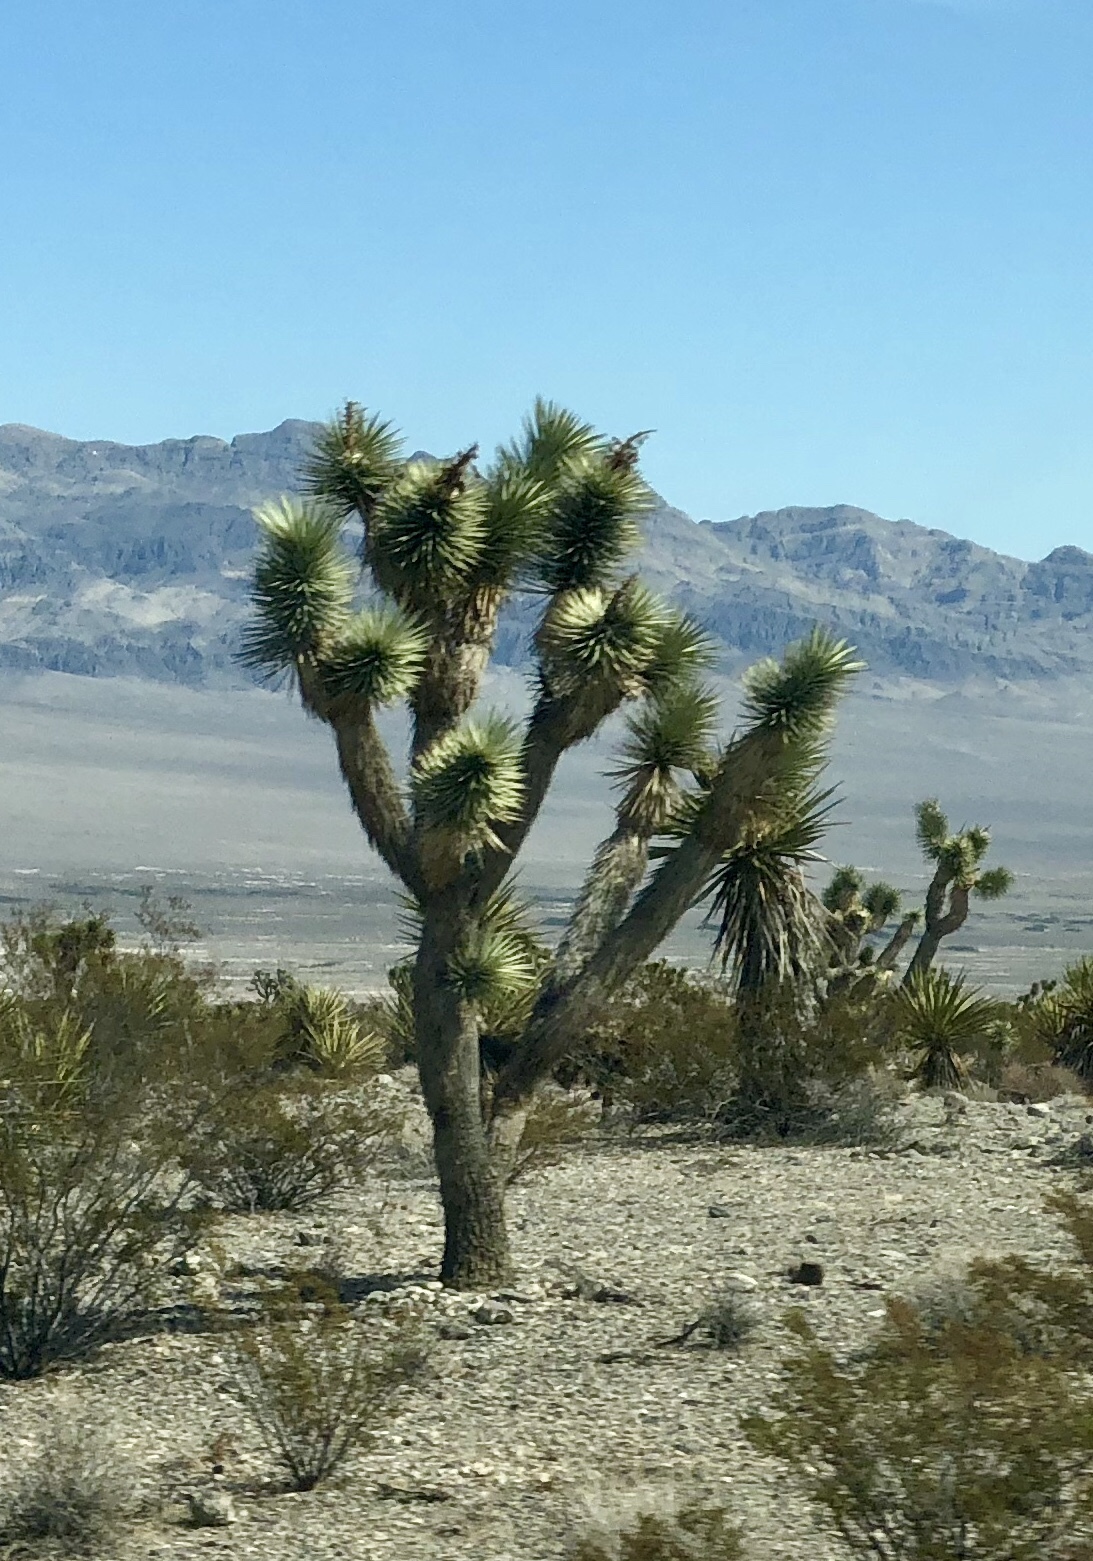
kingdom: Plantae
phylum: Tracheophyta
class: Liliopsida
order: Asparagales
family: Asparagaceae
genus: Yucca
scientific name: Yucca brevifolia
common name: Joshua tree
